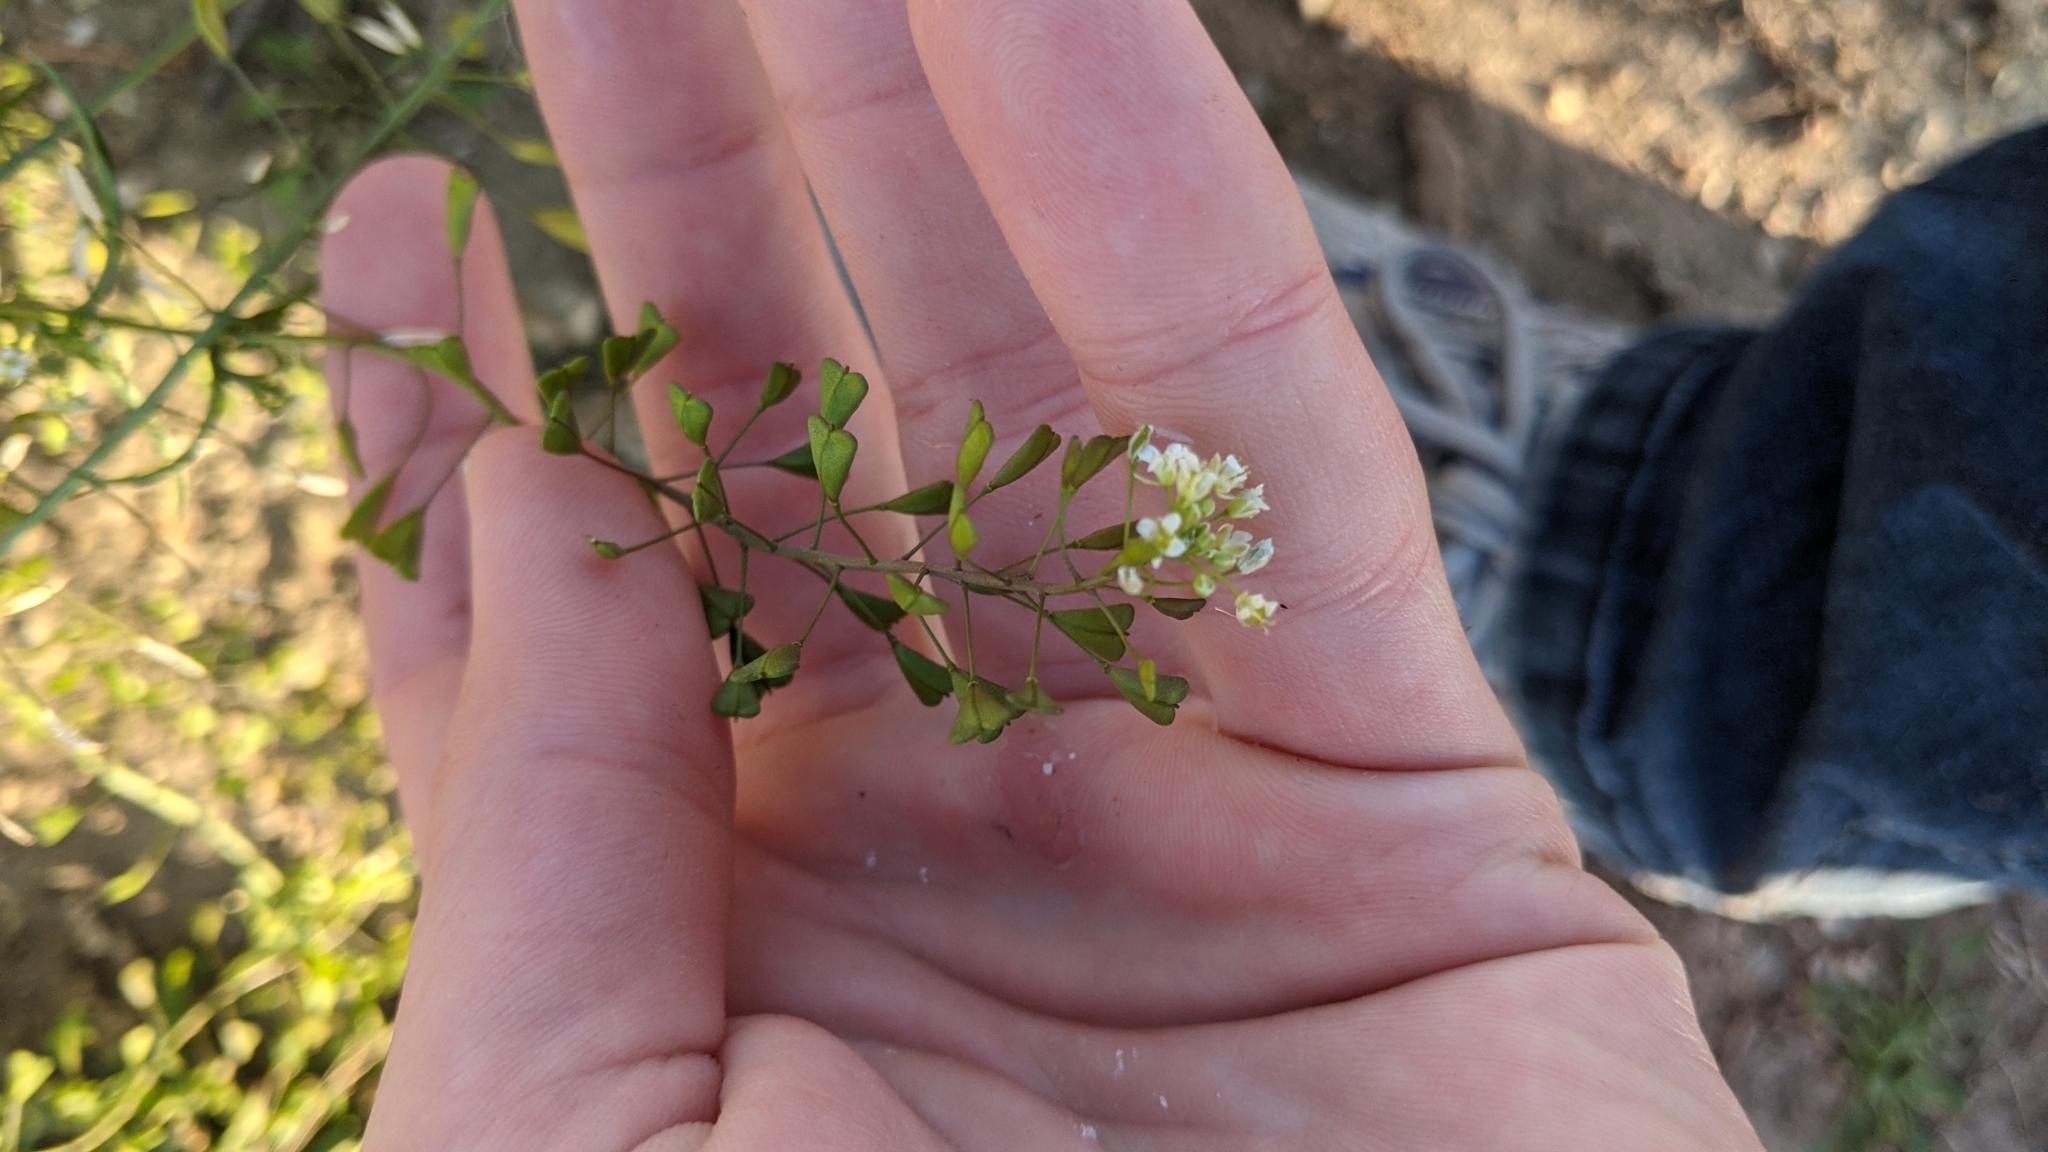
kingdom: Plantae
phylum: Tracheophyta
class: Magnoliopsida
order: Brassicales
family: Brassicaceae
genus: Capsella
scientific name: Capsella bursa-pastoris
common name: Shepherd's purse
